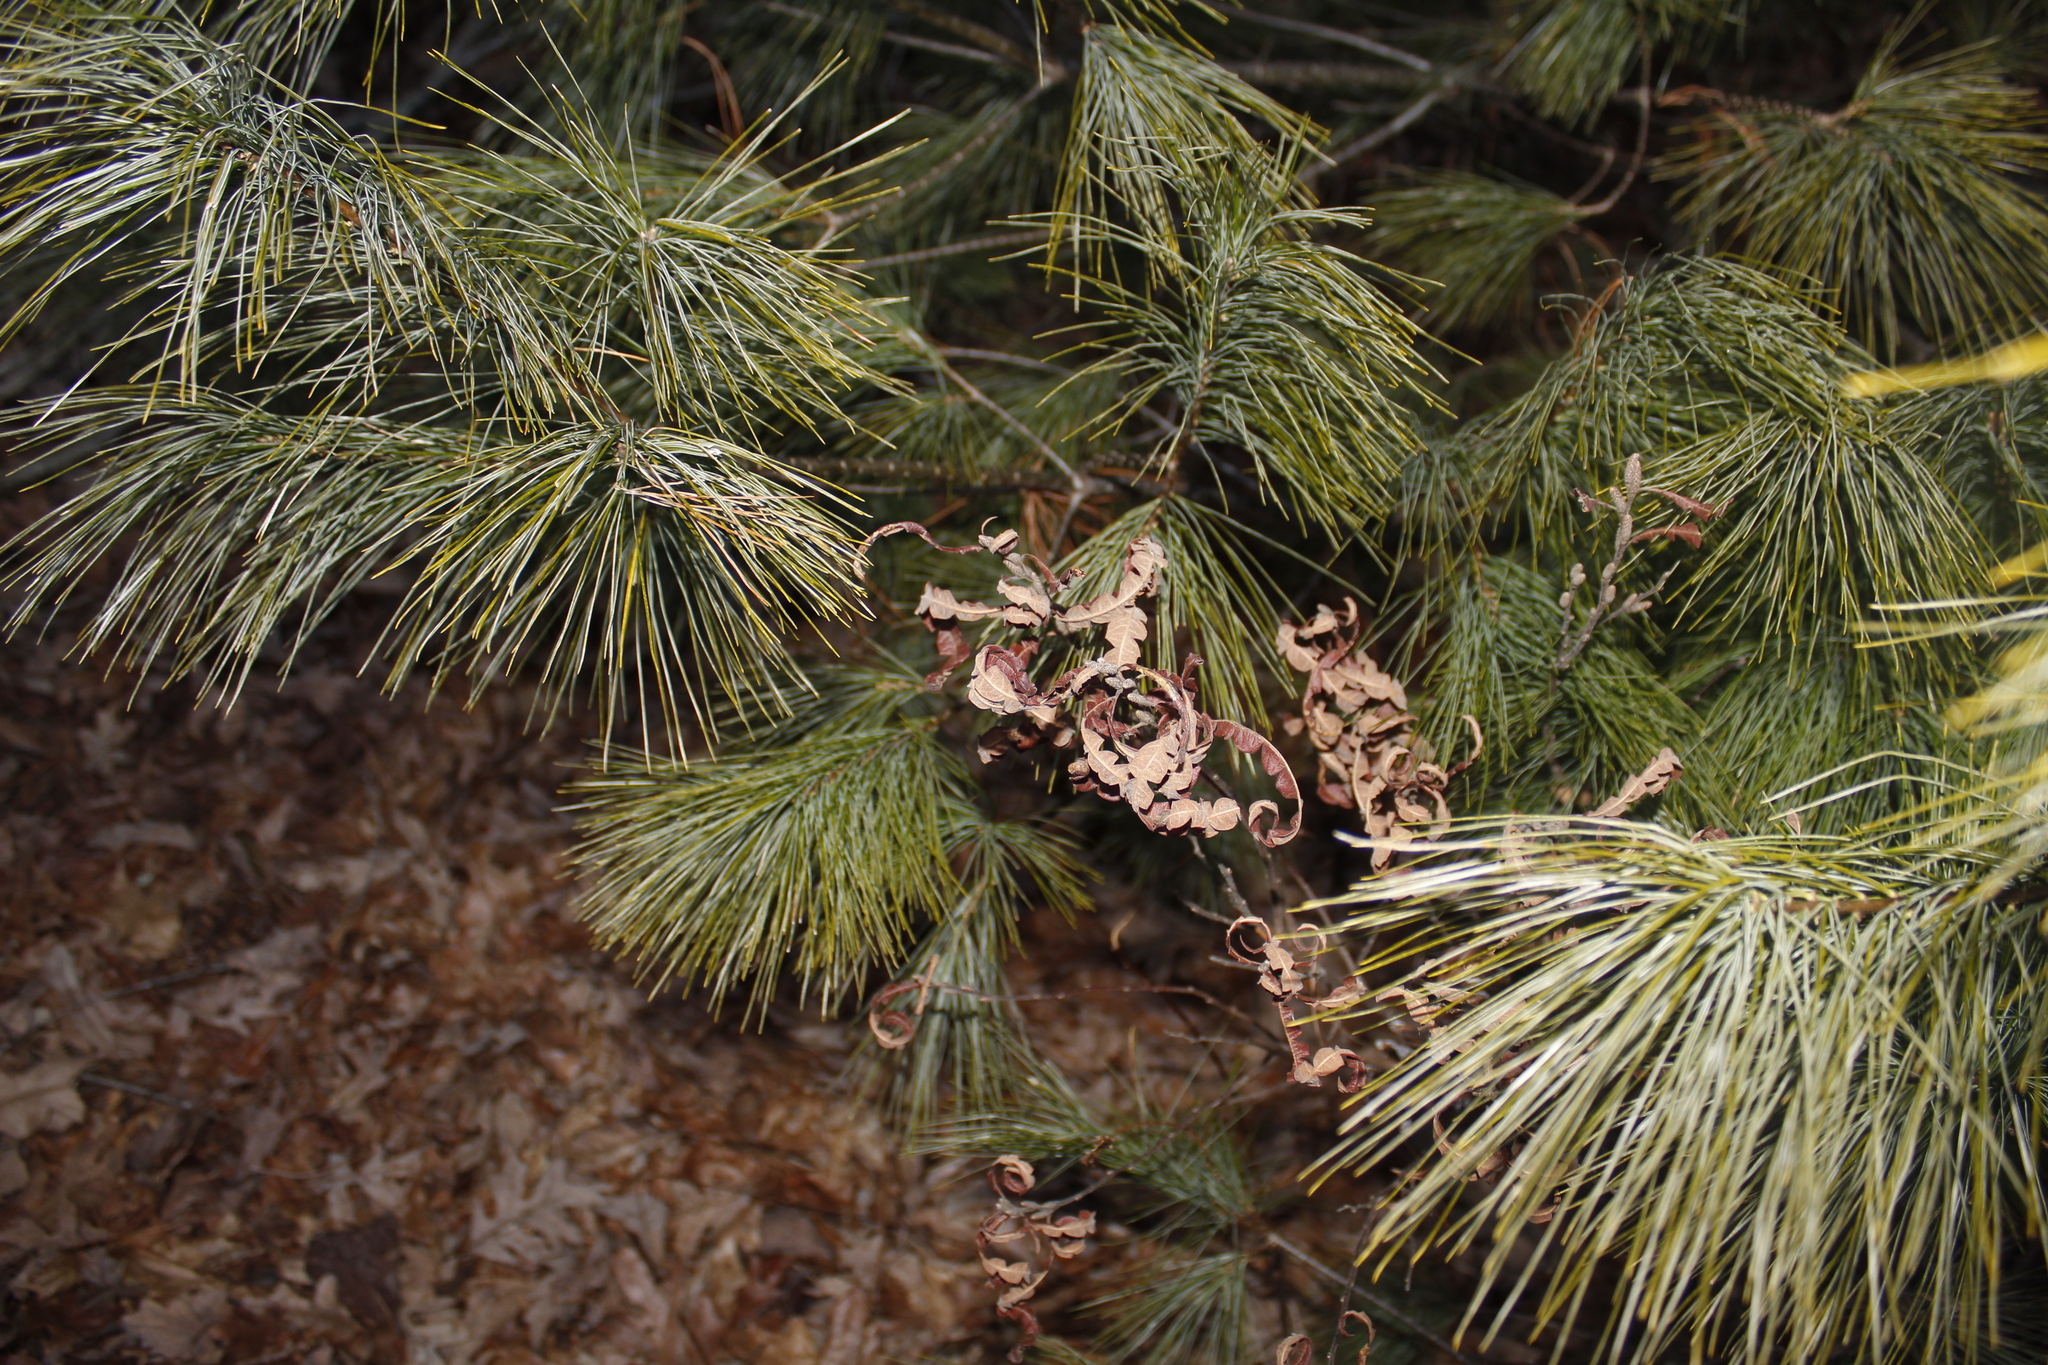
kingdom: Plantae
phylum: Tracheophyta
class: Magnoliopsida
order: Fagales
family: Myricaceae
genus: Comptonia
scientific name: Comptonia peregrina
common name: Sweet-fern
